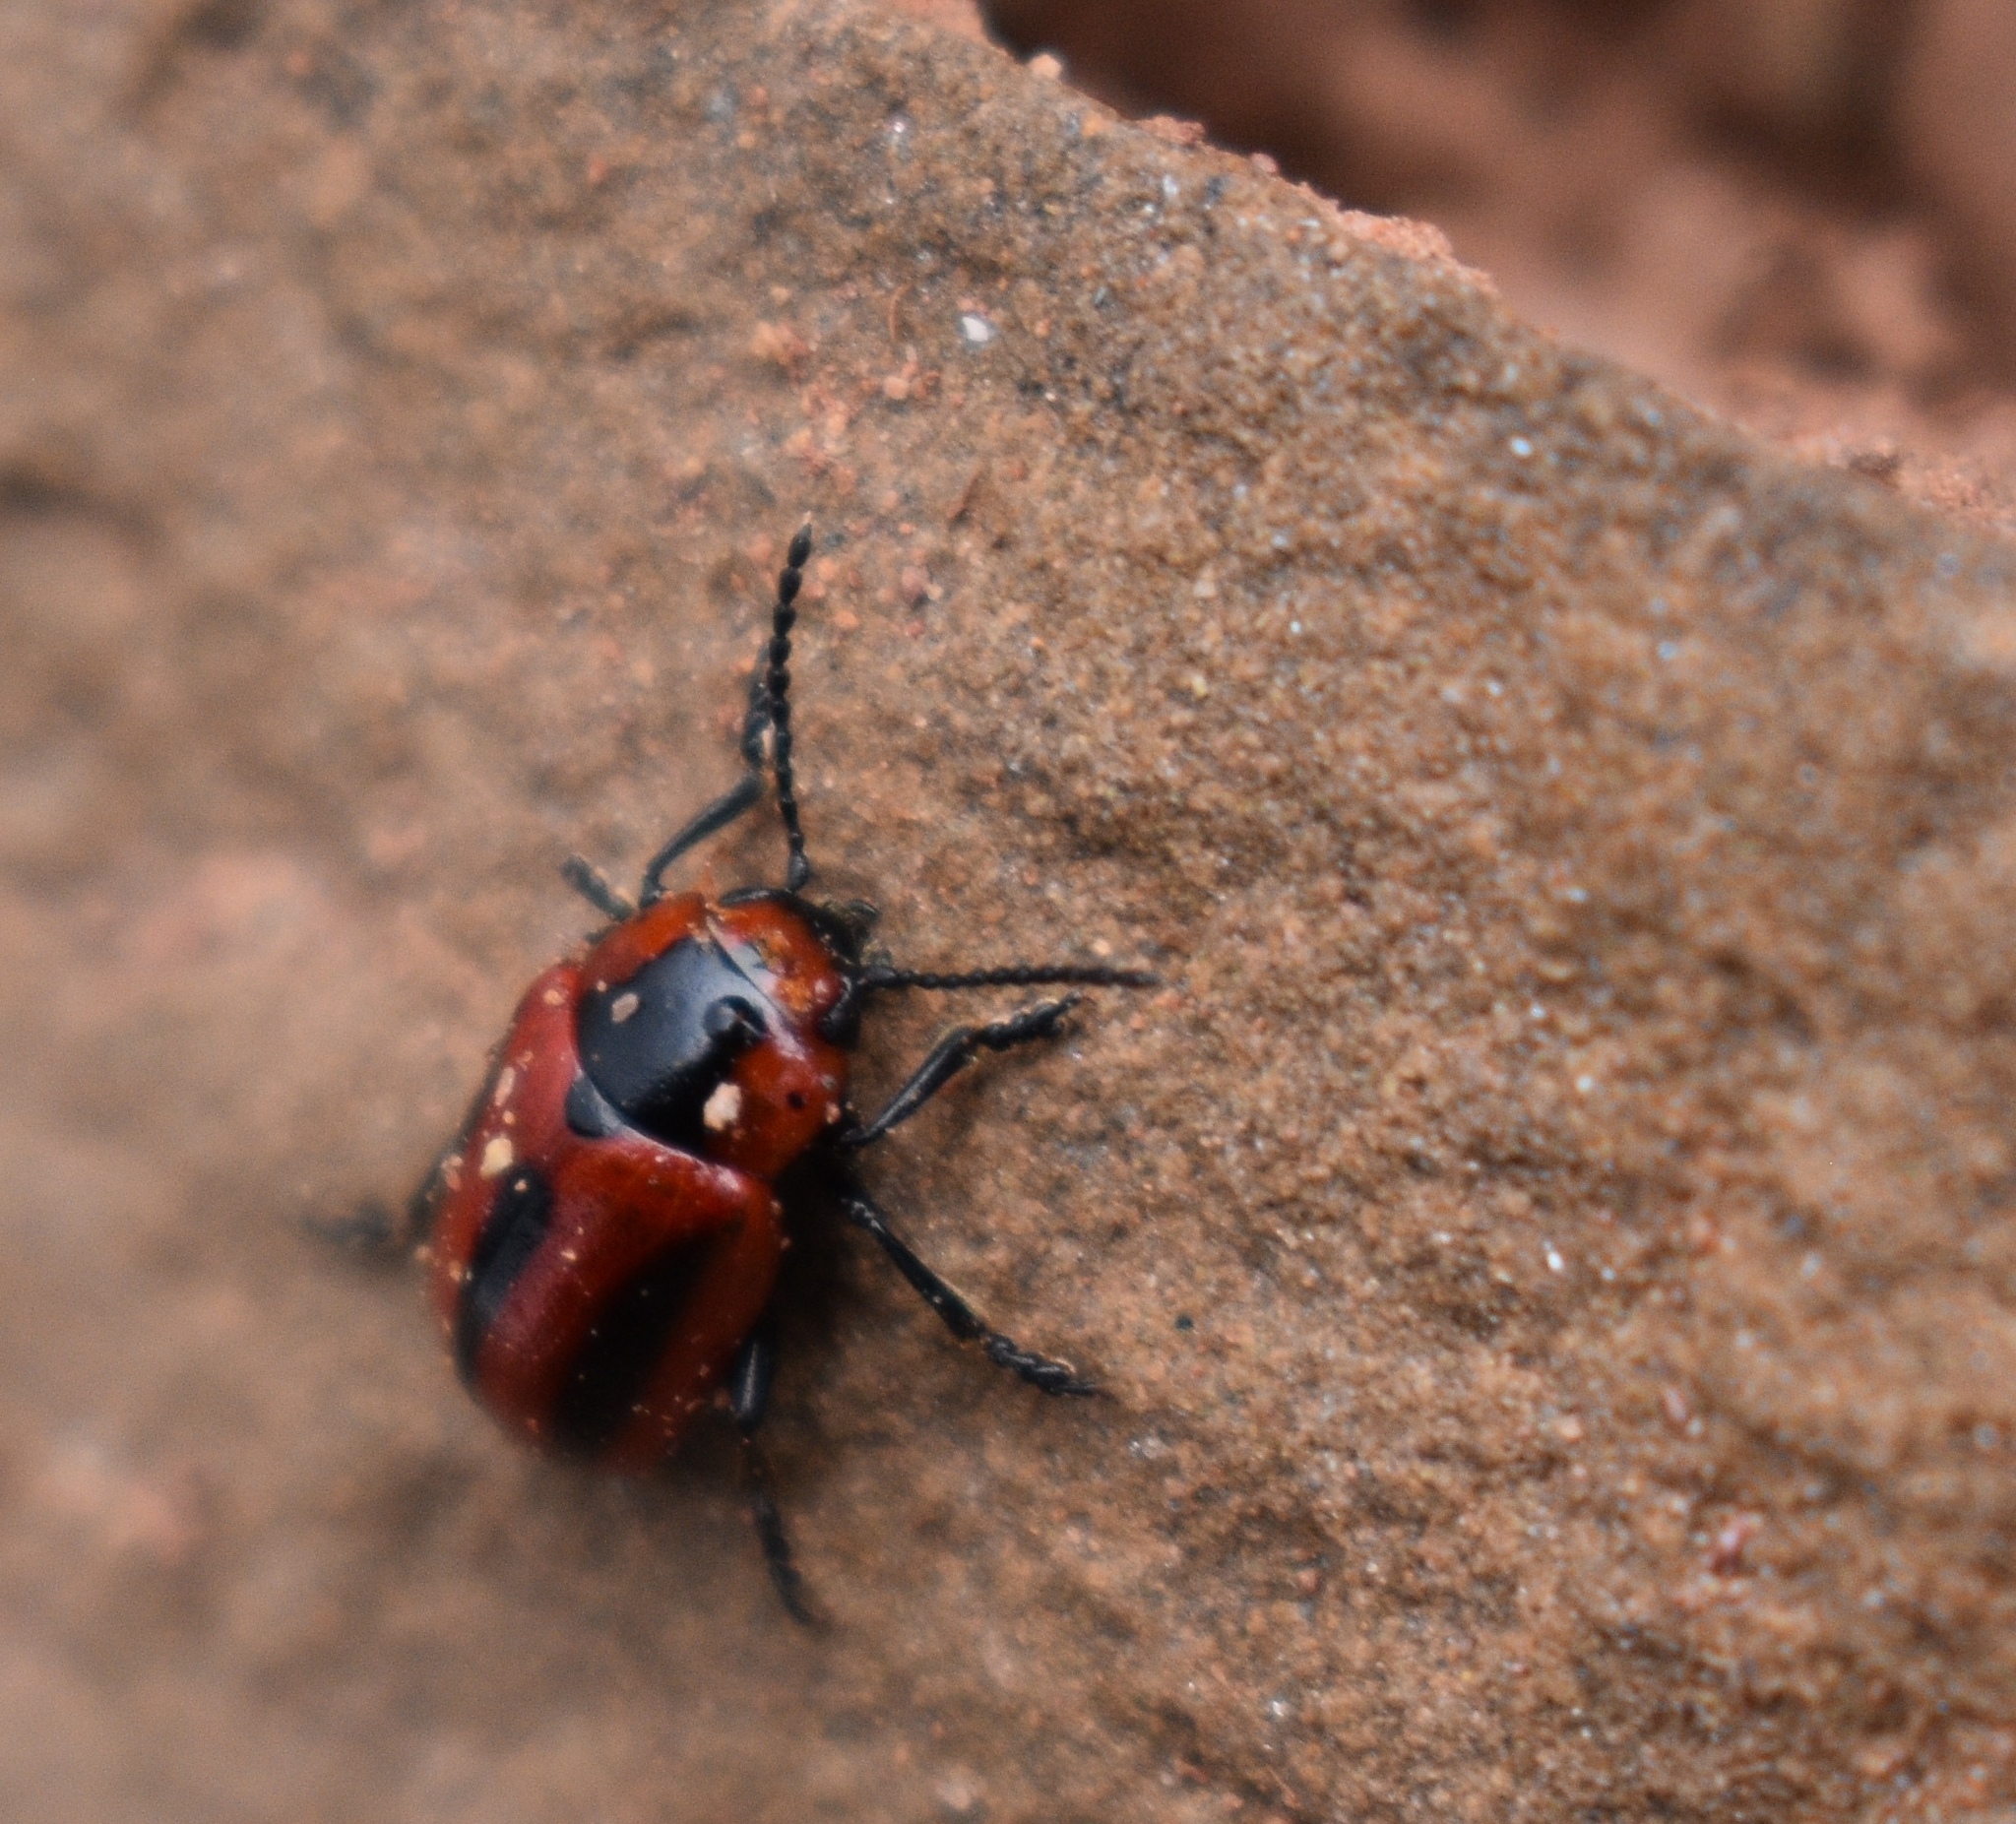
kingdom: Animalia
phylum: Arthropoda
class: Insecta
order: Coleoptera
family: Chrysomelidae
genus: Entomoscelis
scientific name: Entomoscelis americana
